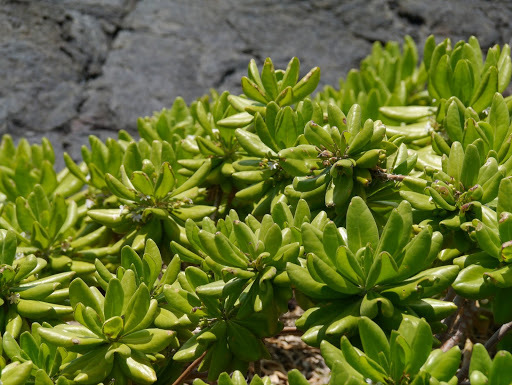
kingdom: Plantae
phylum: Tracheophyta
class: Magnoliopsida
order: Asterales
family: Goodeniaceae
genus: Scaevola
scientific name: Scaevola taccada
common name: Sea lettucetree
